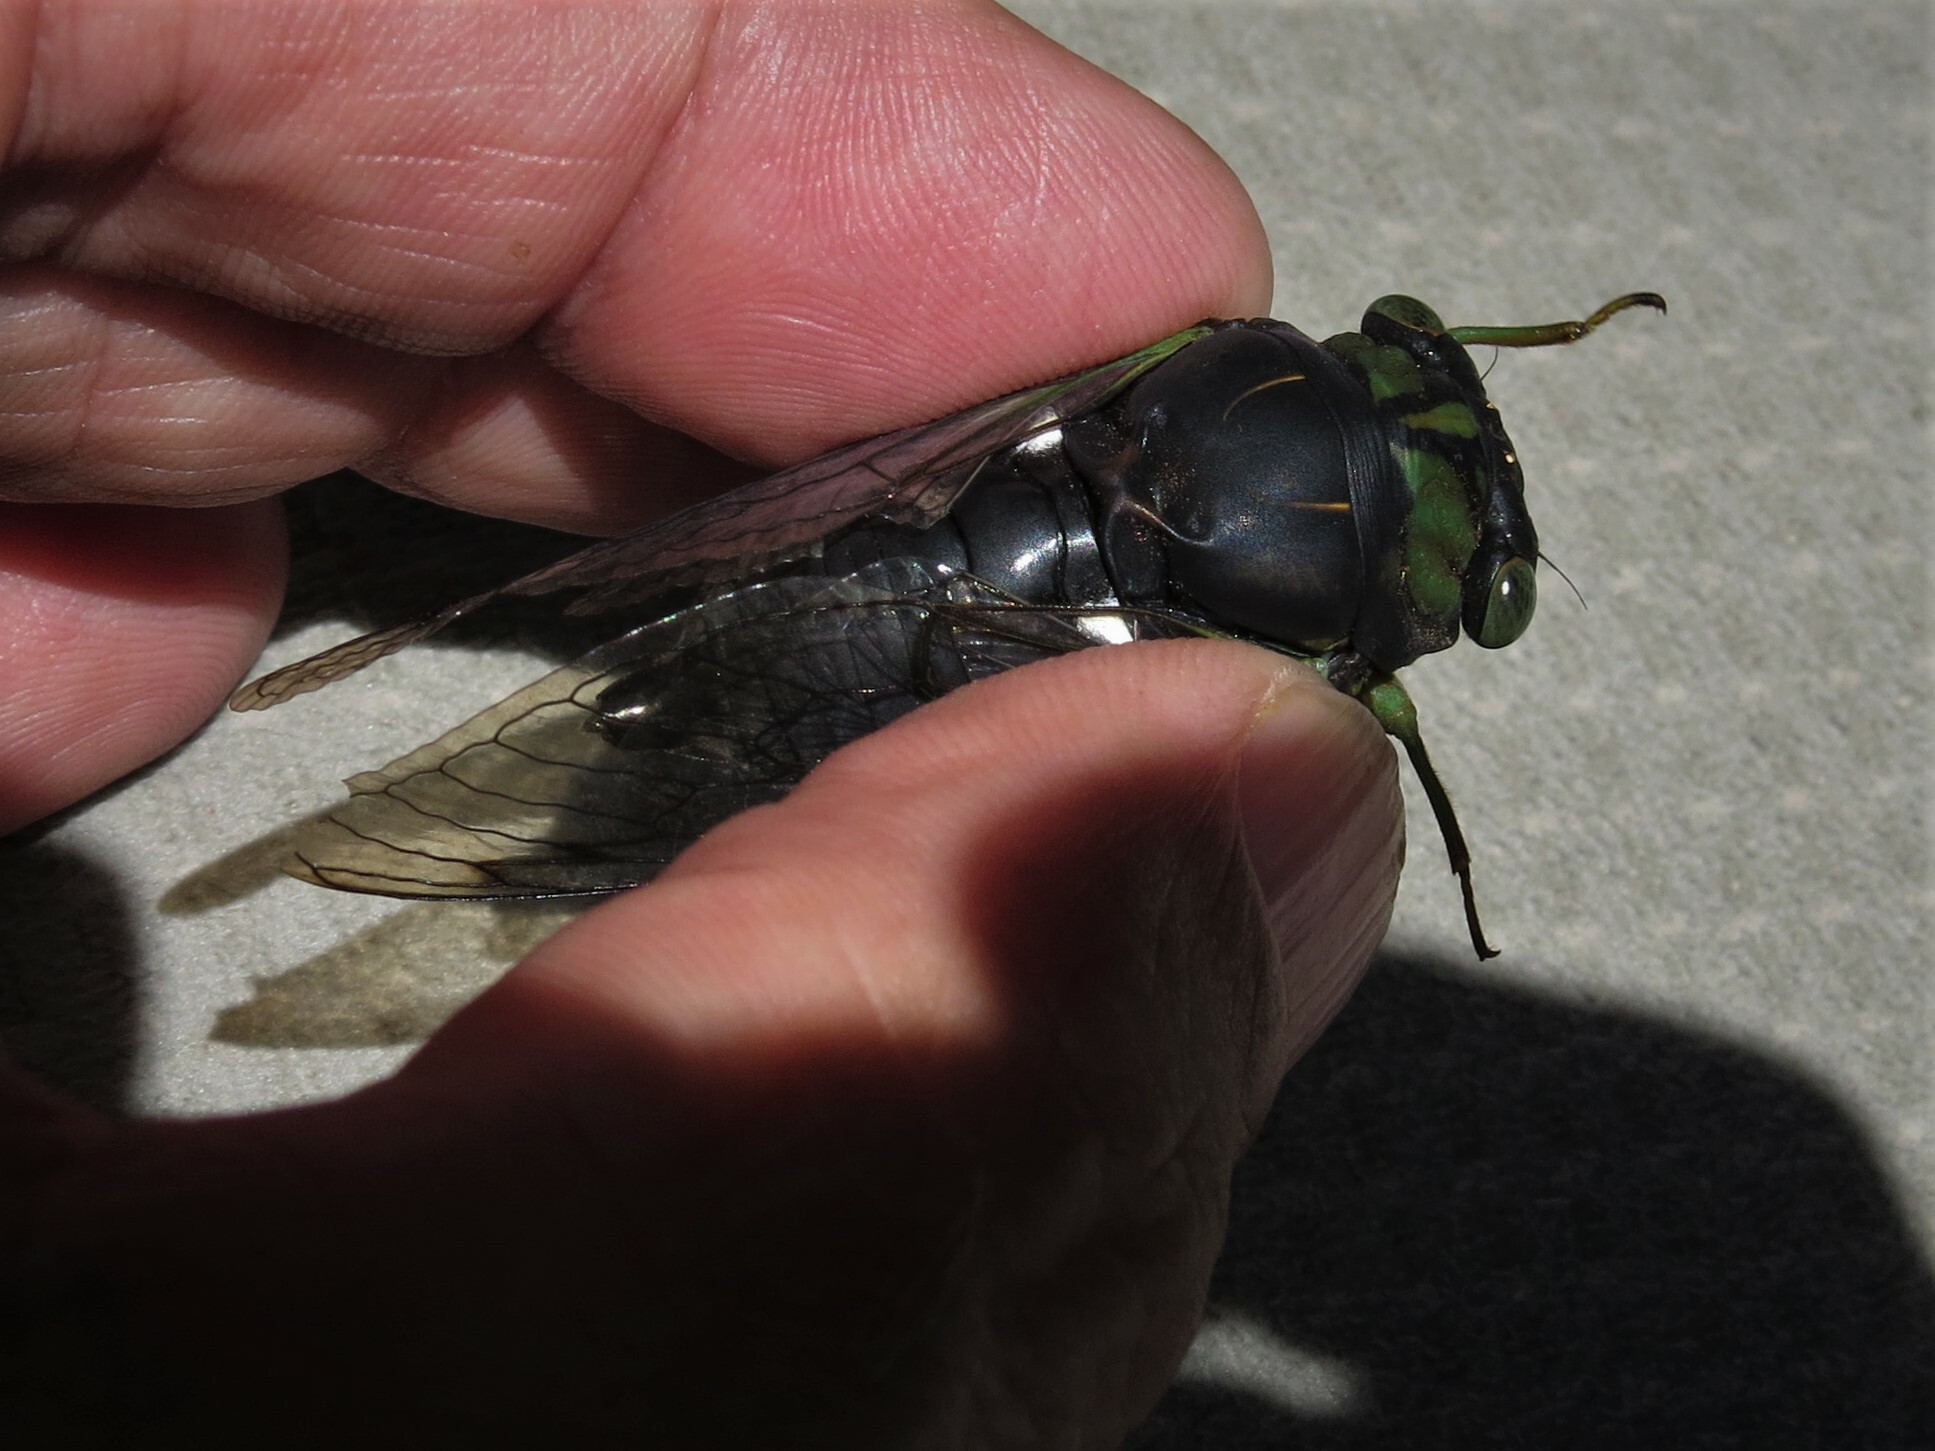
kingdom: Animalia
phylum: Arthropoda
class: Insecta
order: Hemiptera
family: Cicadidae
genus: Neotibicen
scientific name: Neotibicen tibicen
